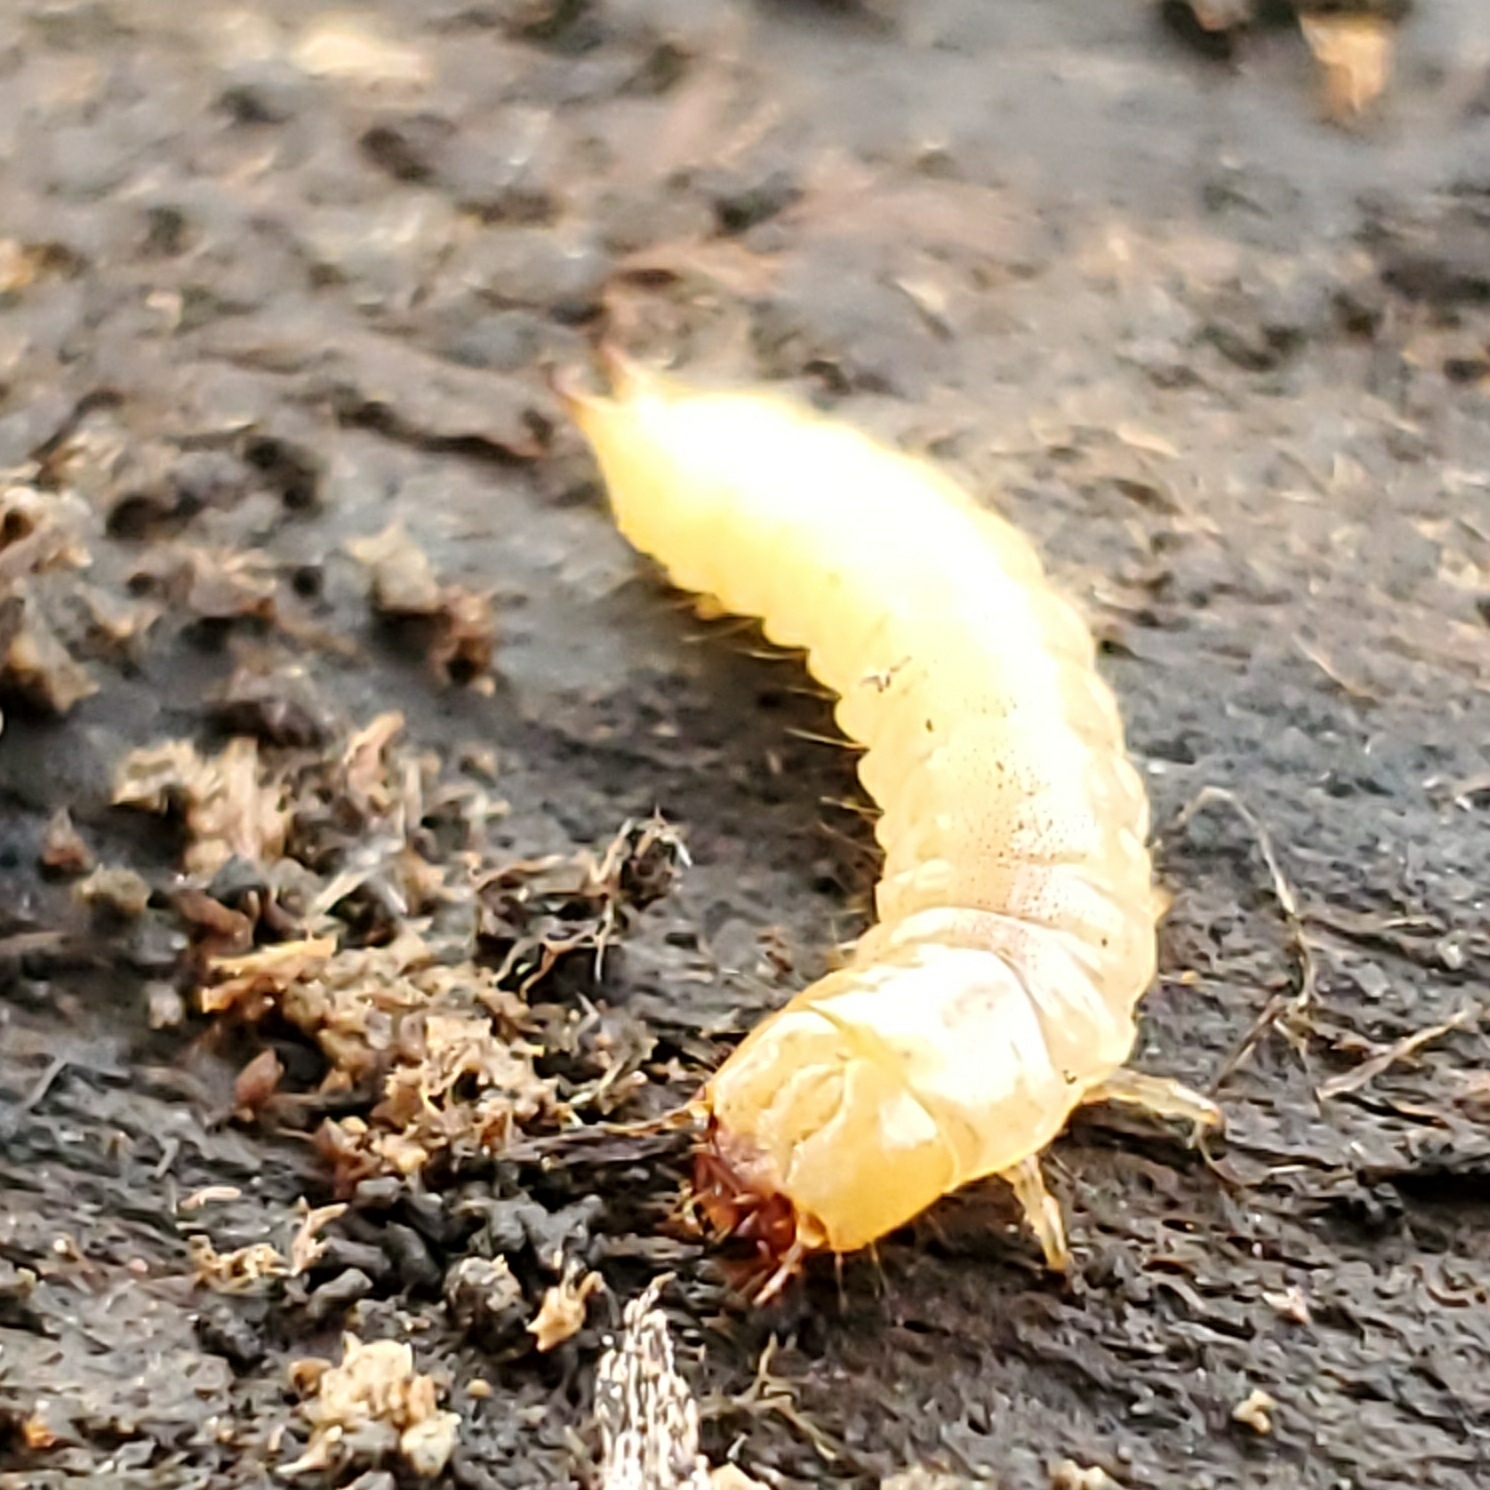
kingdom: Animalia
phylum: Arthropoda
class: Insecta
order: Coleoptera
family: Synchroidae
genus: Synchroa
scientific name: Synchroa punctata
